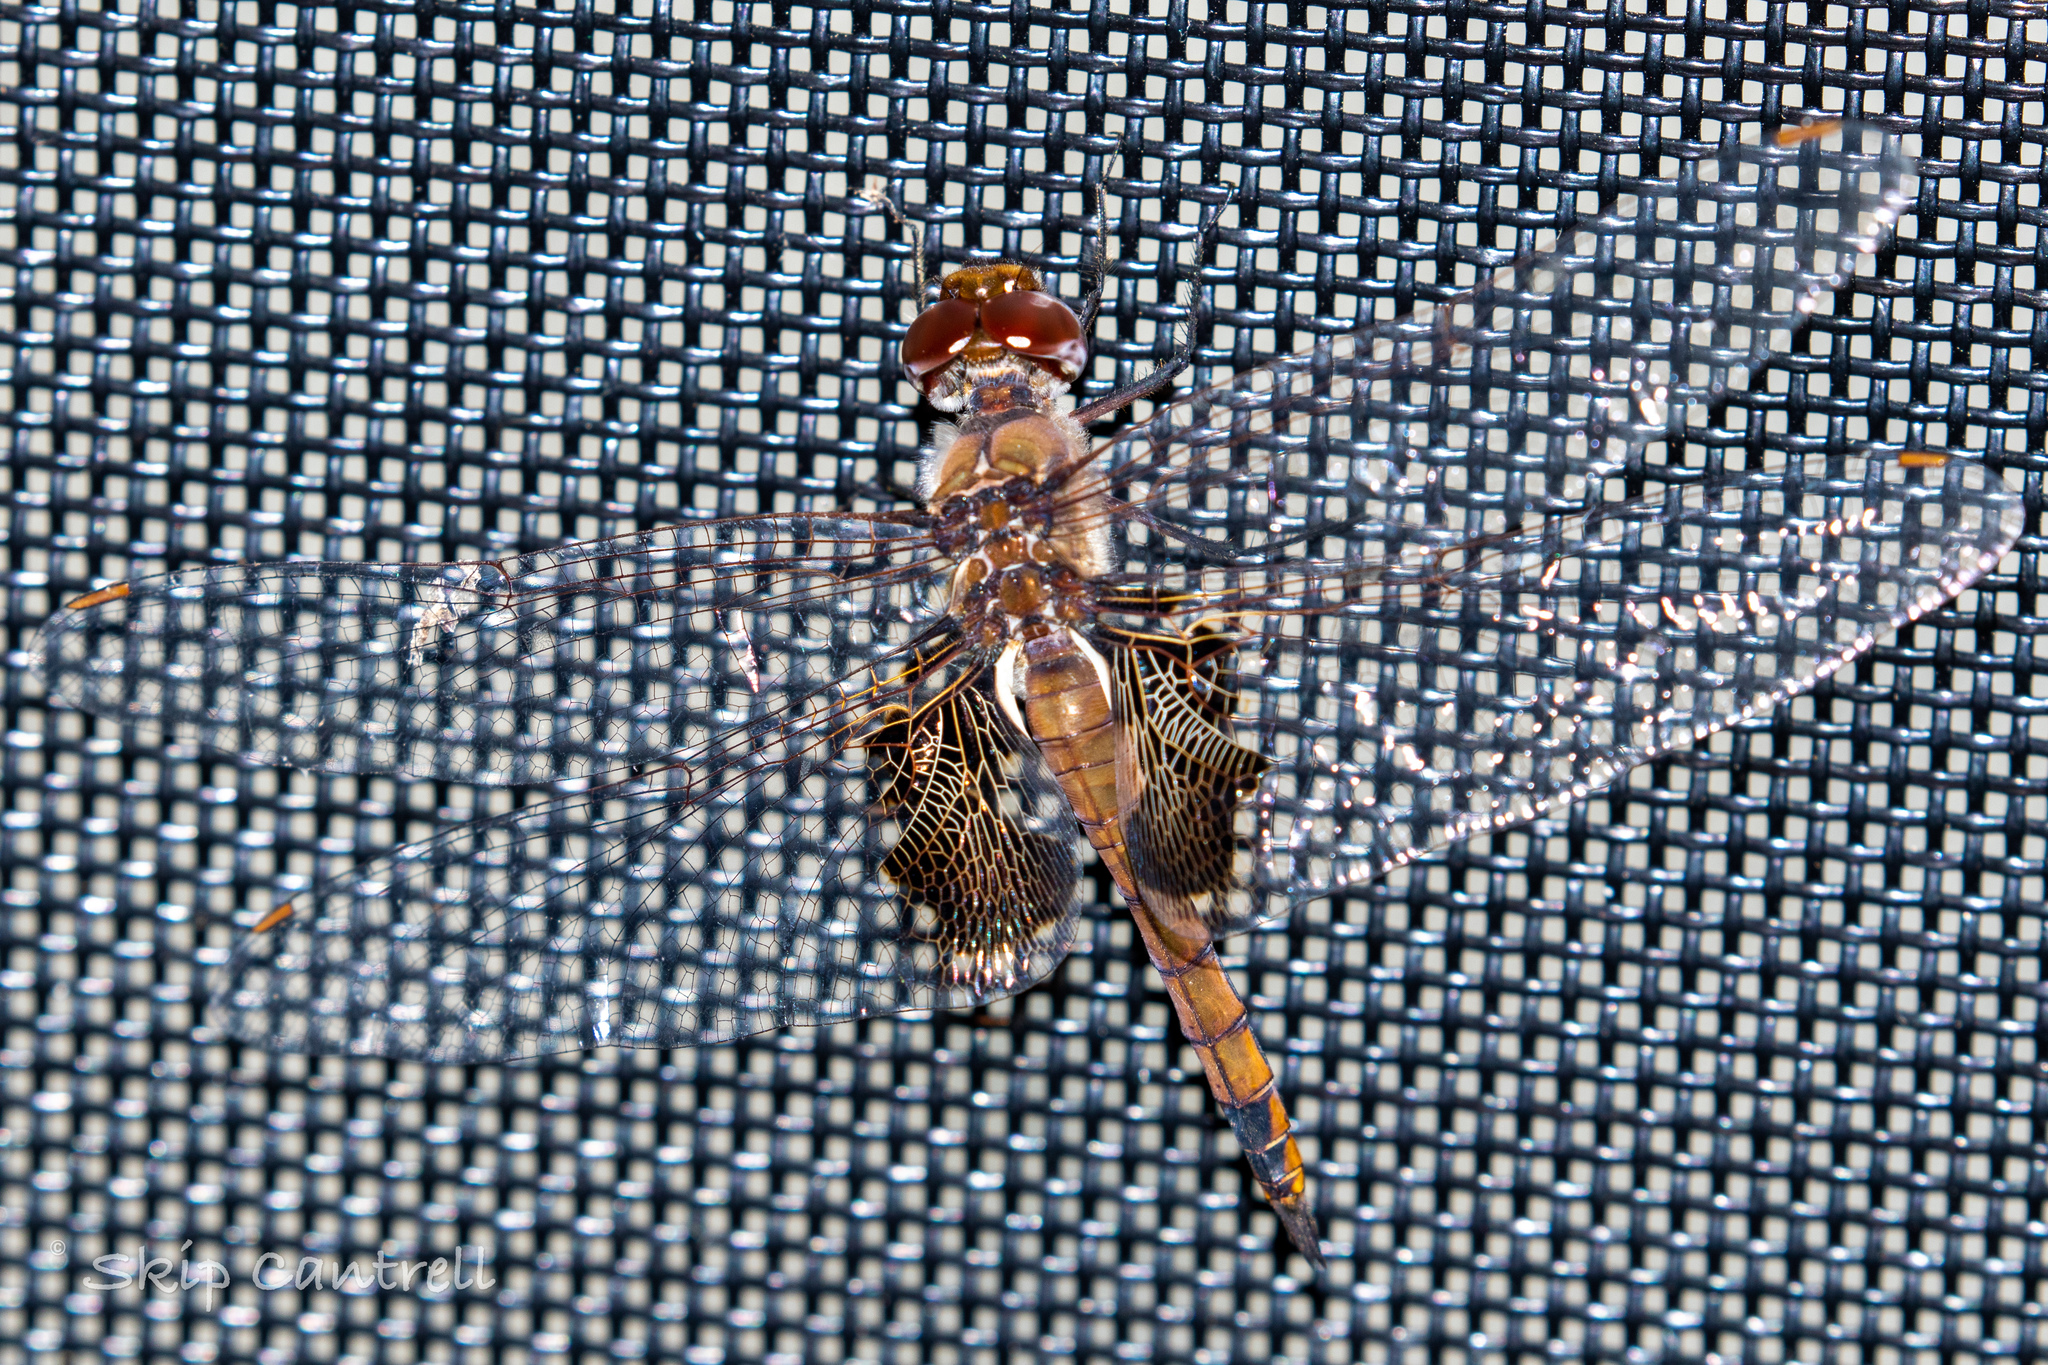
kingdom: Animalia
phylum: Arthropoda
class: Insecta
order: Odonata
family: Libellulidae
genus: Tramea
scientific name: Tramea onusta
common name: Red saddlebags
